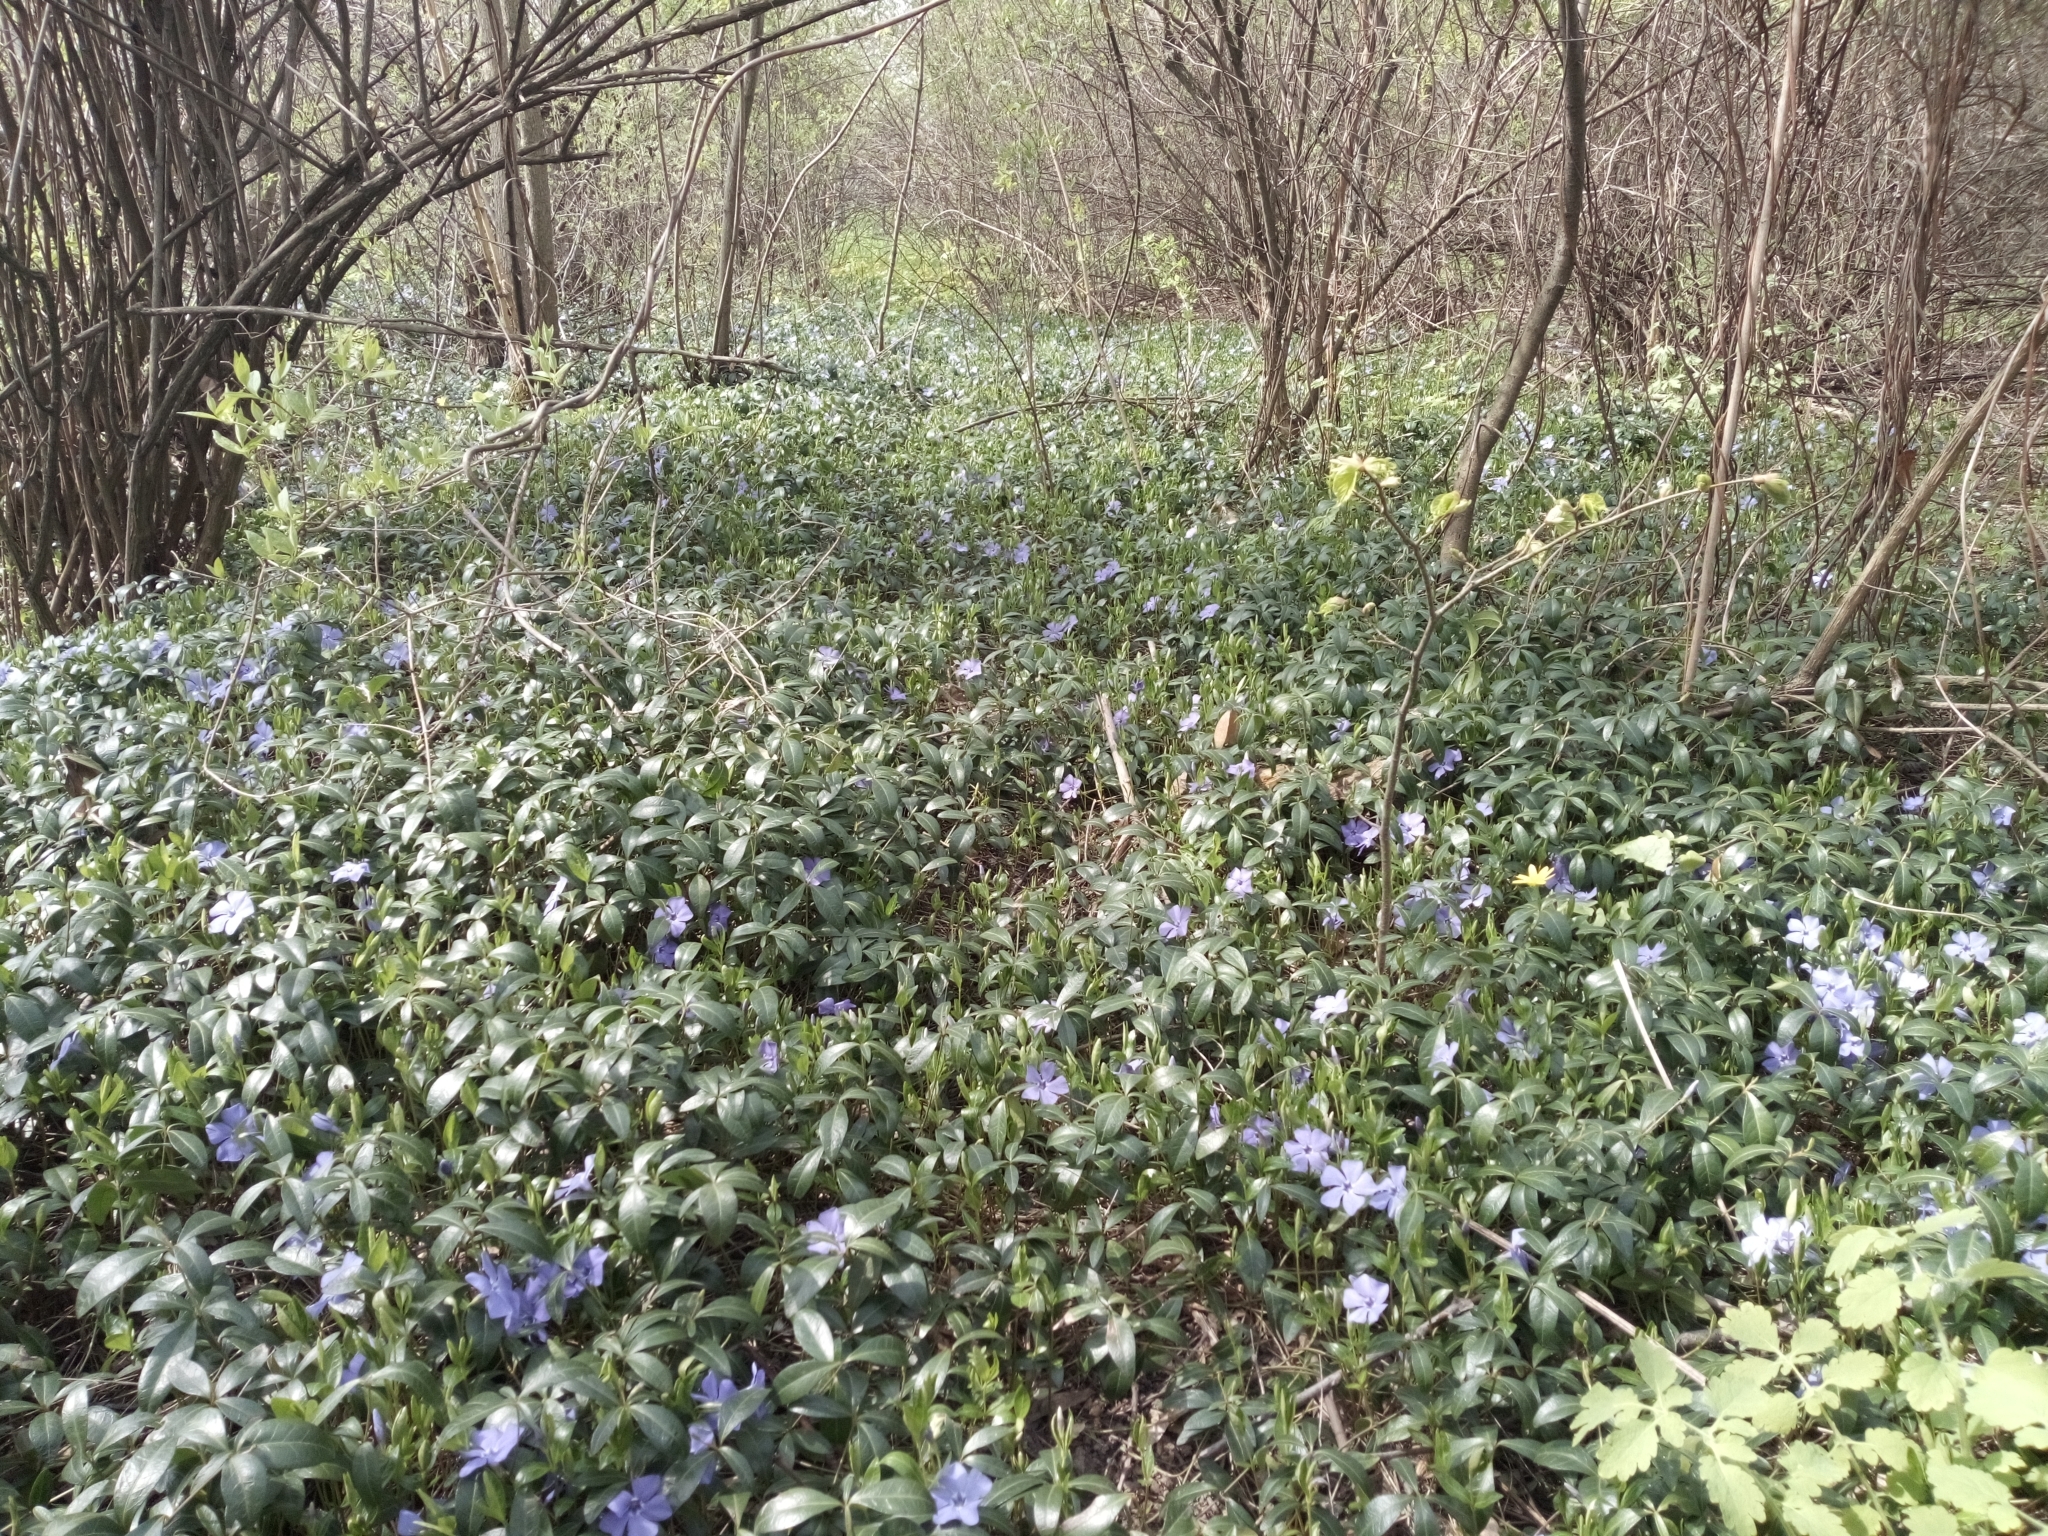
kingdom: Plantae
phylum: Tracheophyta
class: Magnoliopsida
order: Gentianales
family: Apocynaceae
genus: Vinca
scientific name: Vinca minor
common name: Lesser periwinkle
